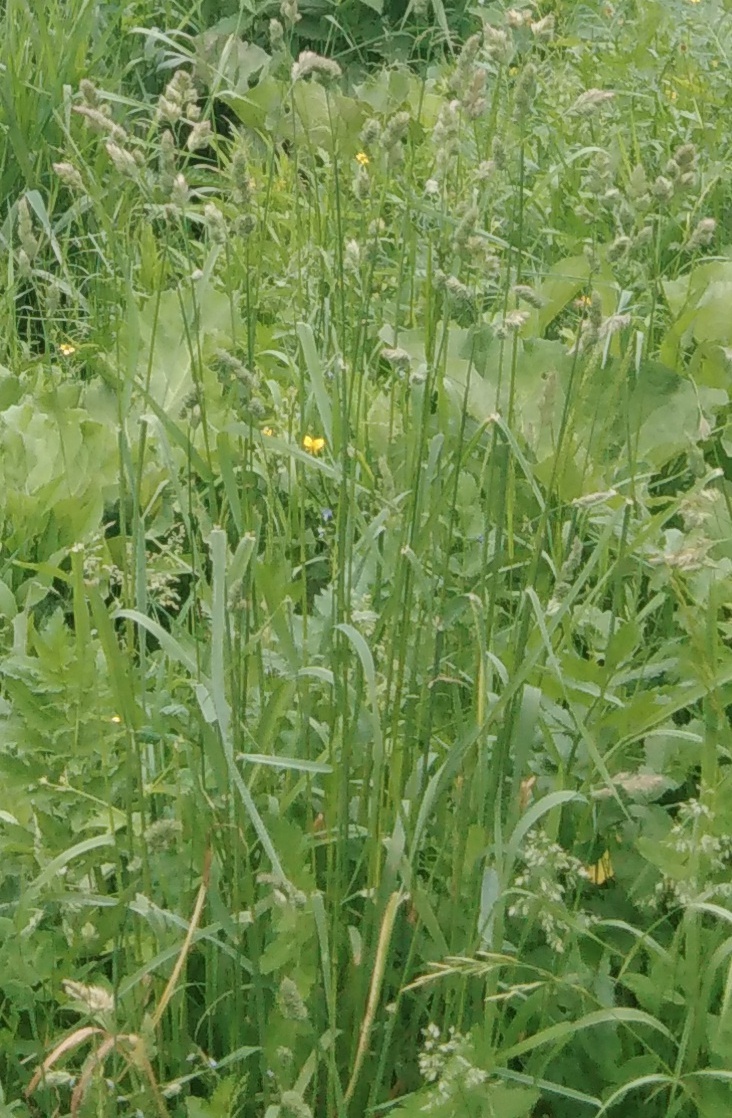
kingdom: Plantae
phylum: Tracheophyta
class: Liliopsida
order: Poales
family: Poaceae
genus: Dactylis
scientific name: Dactylis glomerata
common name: Orchardgrass
